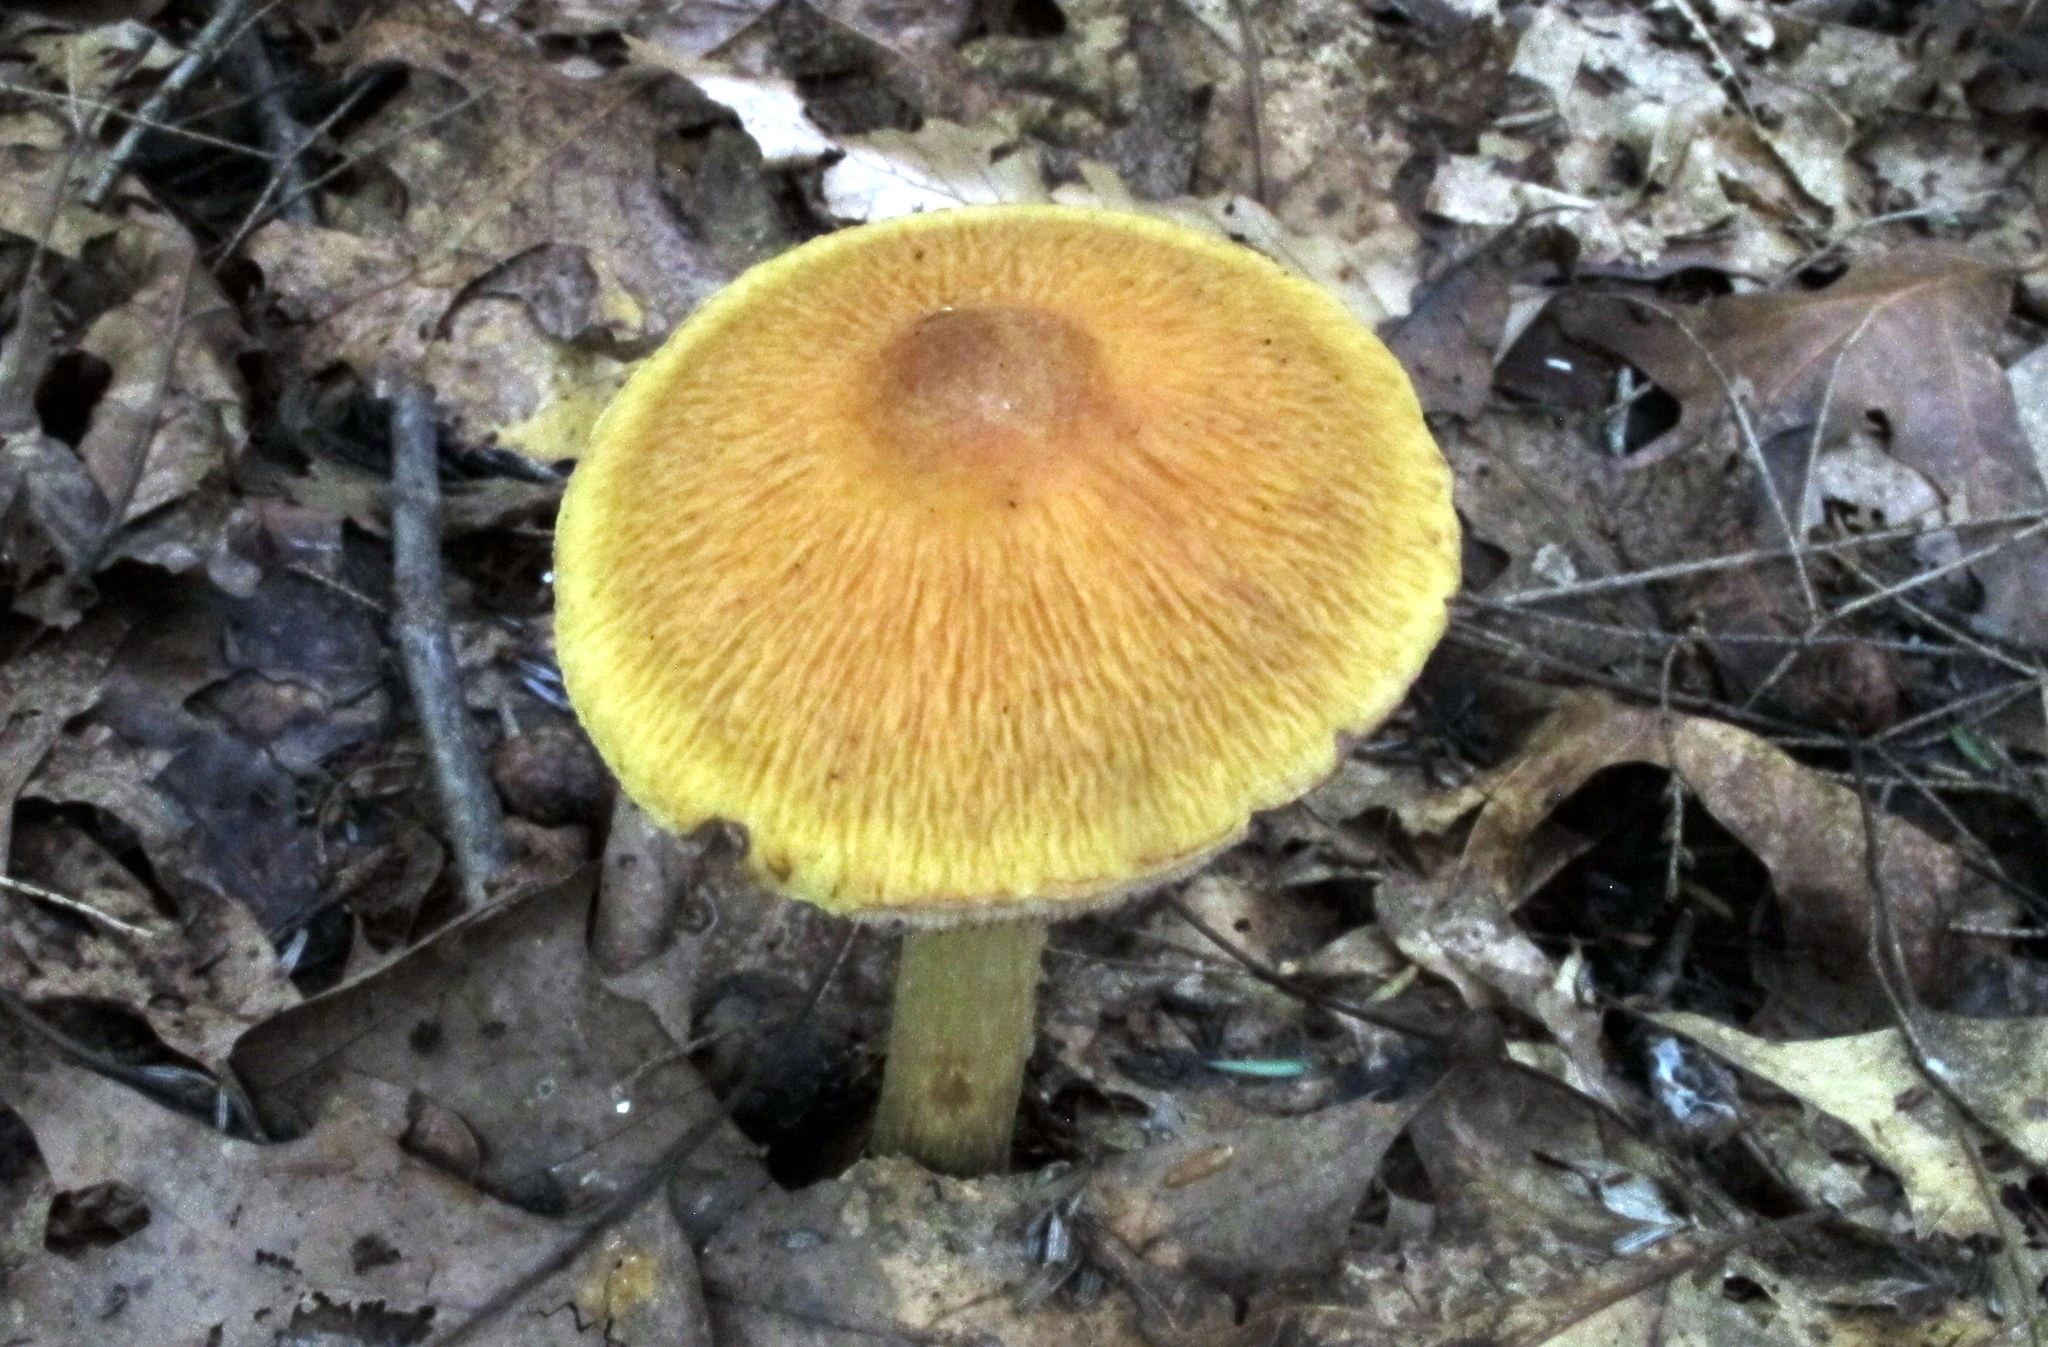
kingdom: Fungi
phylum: Basidiomycota
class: Agaricomycetes
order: Agaricales
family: Cortinariaceae
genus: Cortinarius
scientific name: Cortinarius corrugatus
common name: Wrinkled cortinarius
